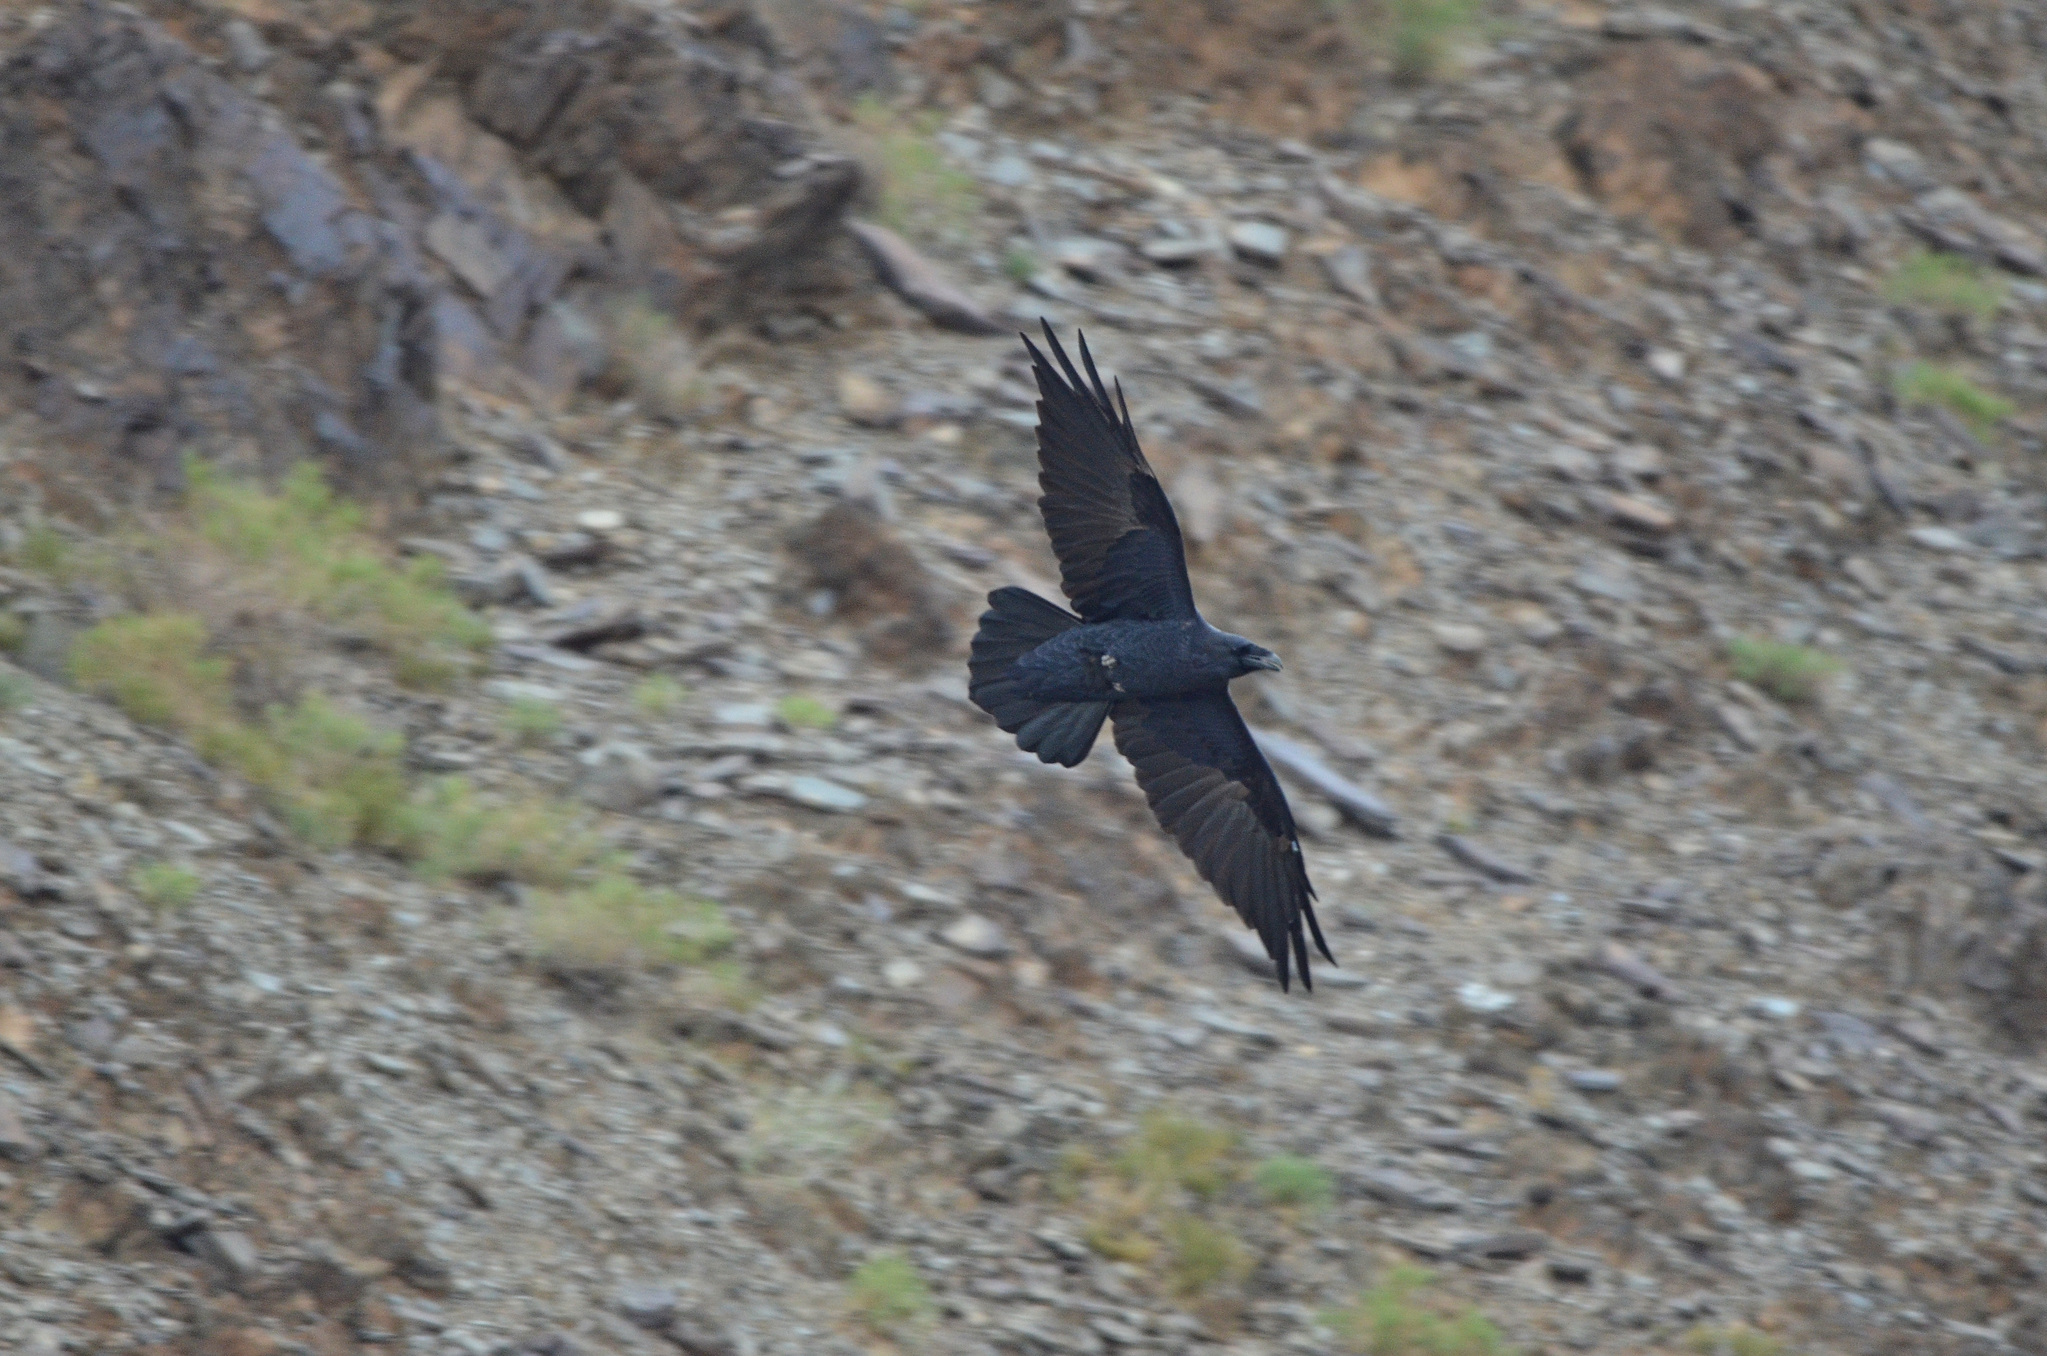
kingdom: Animalia
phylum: Chordata
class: Aves
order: Passeriformes
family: Corvidae
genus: Corvus
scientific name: Corvus corax
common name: Common raven
